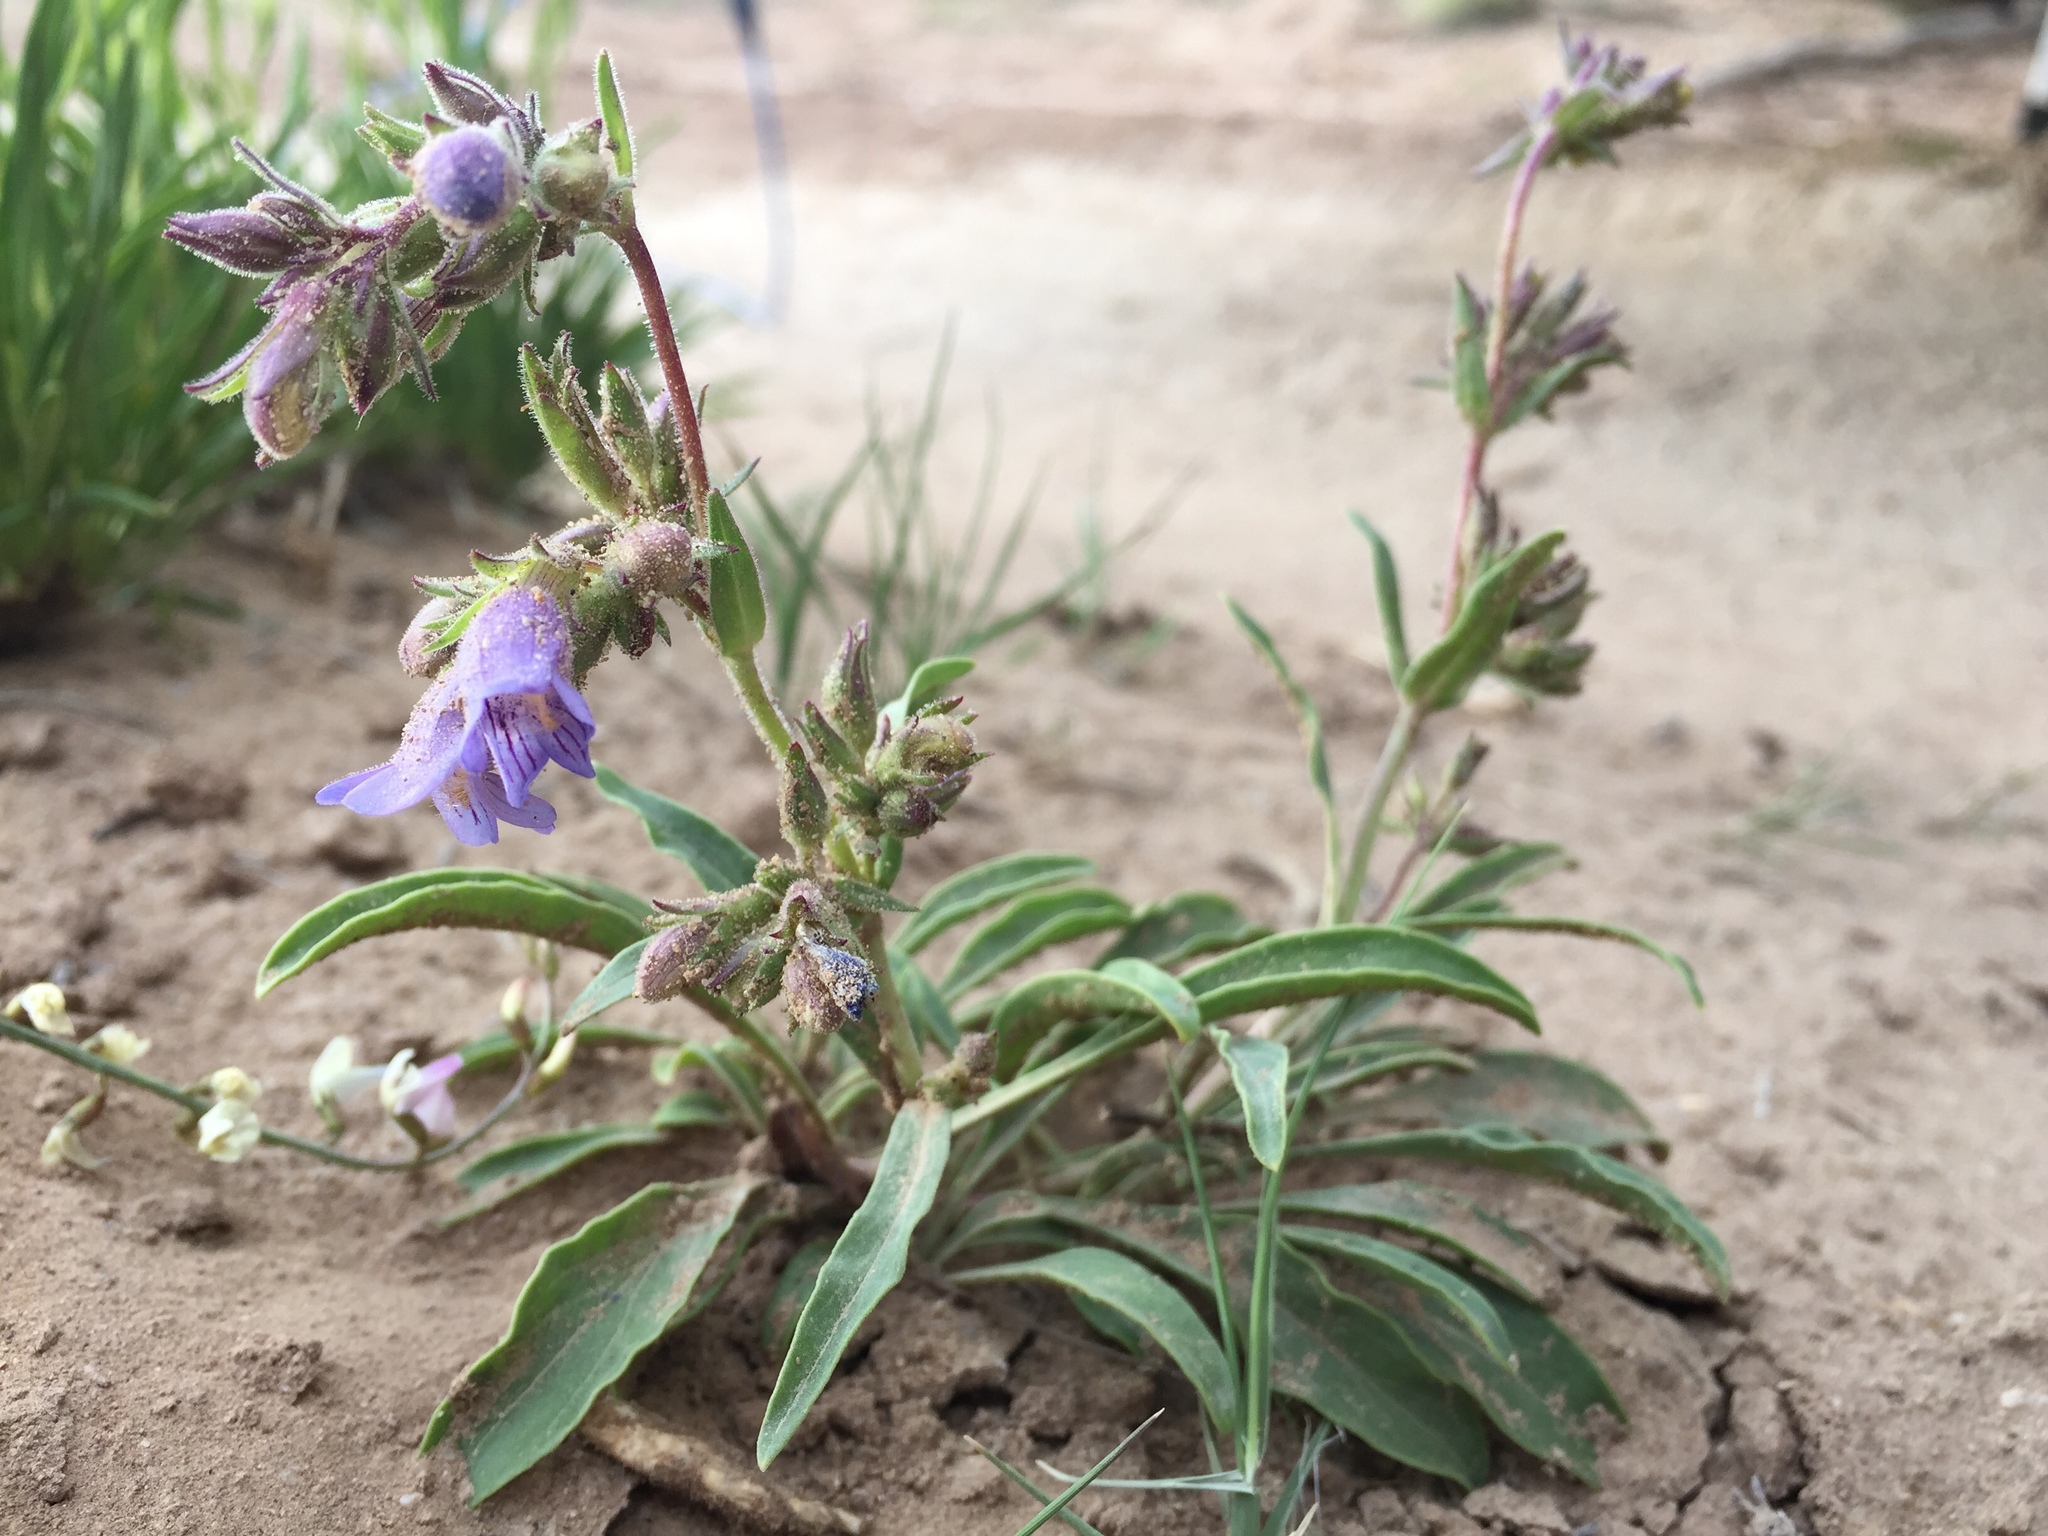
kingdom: Plantae
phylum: Tracheophyta
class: Magnoliopsida
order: Lamiales
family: Plantaginaceae
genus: Penstemon
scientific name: Penstemon breviculus
